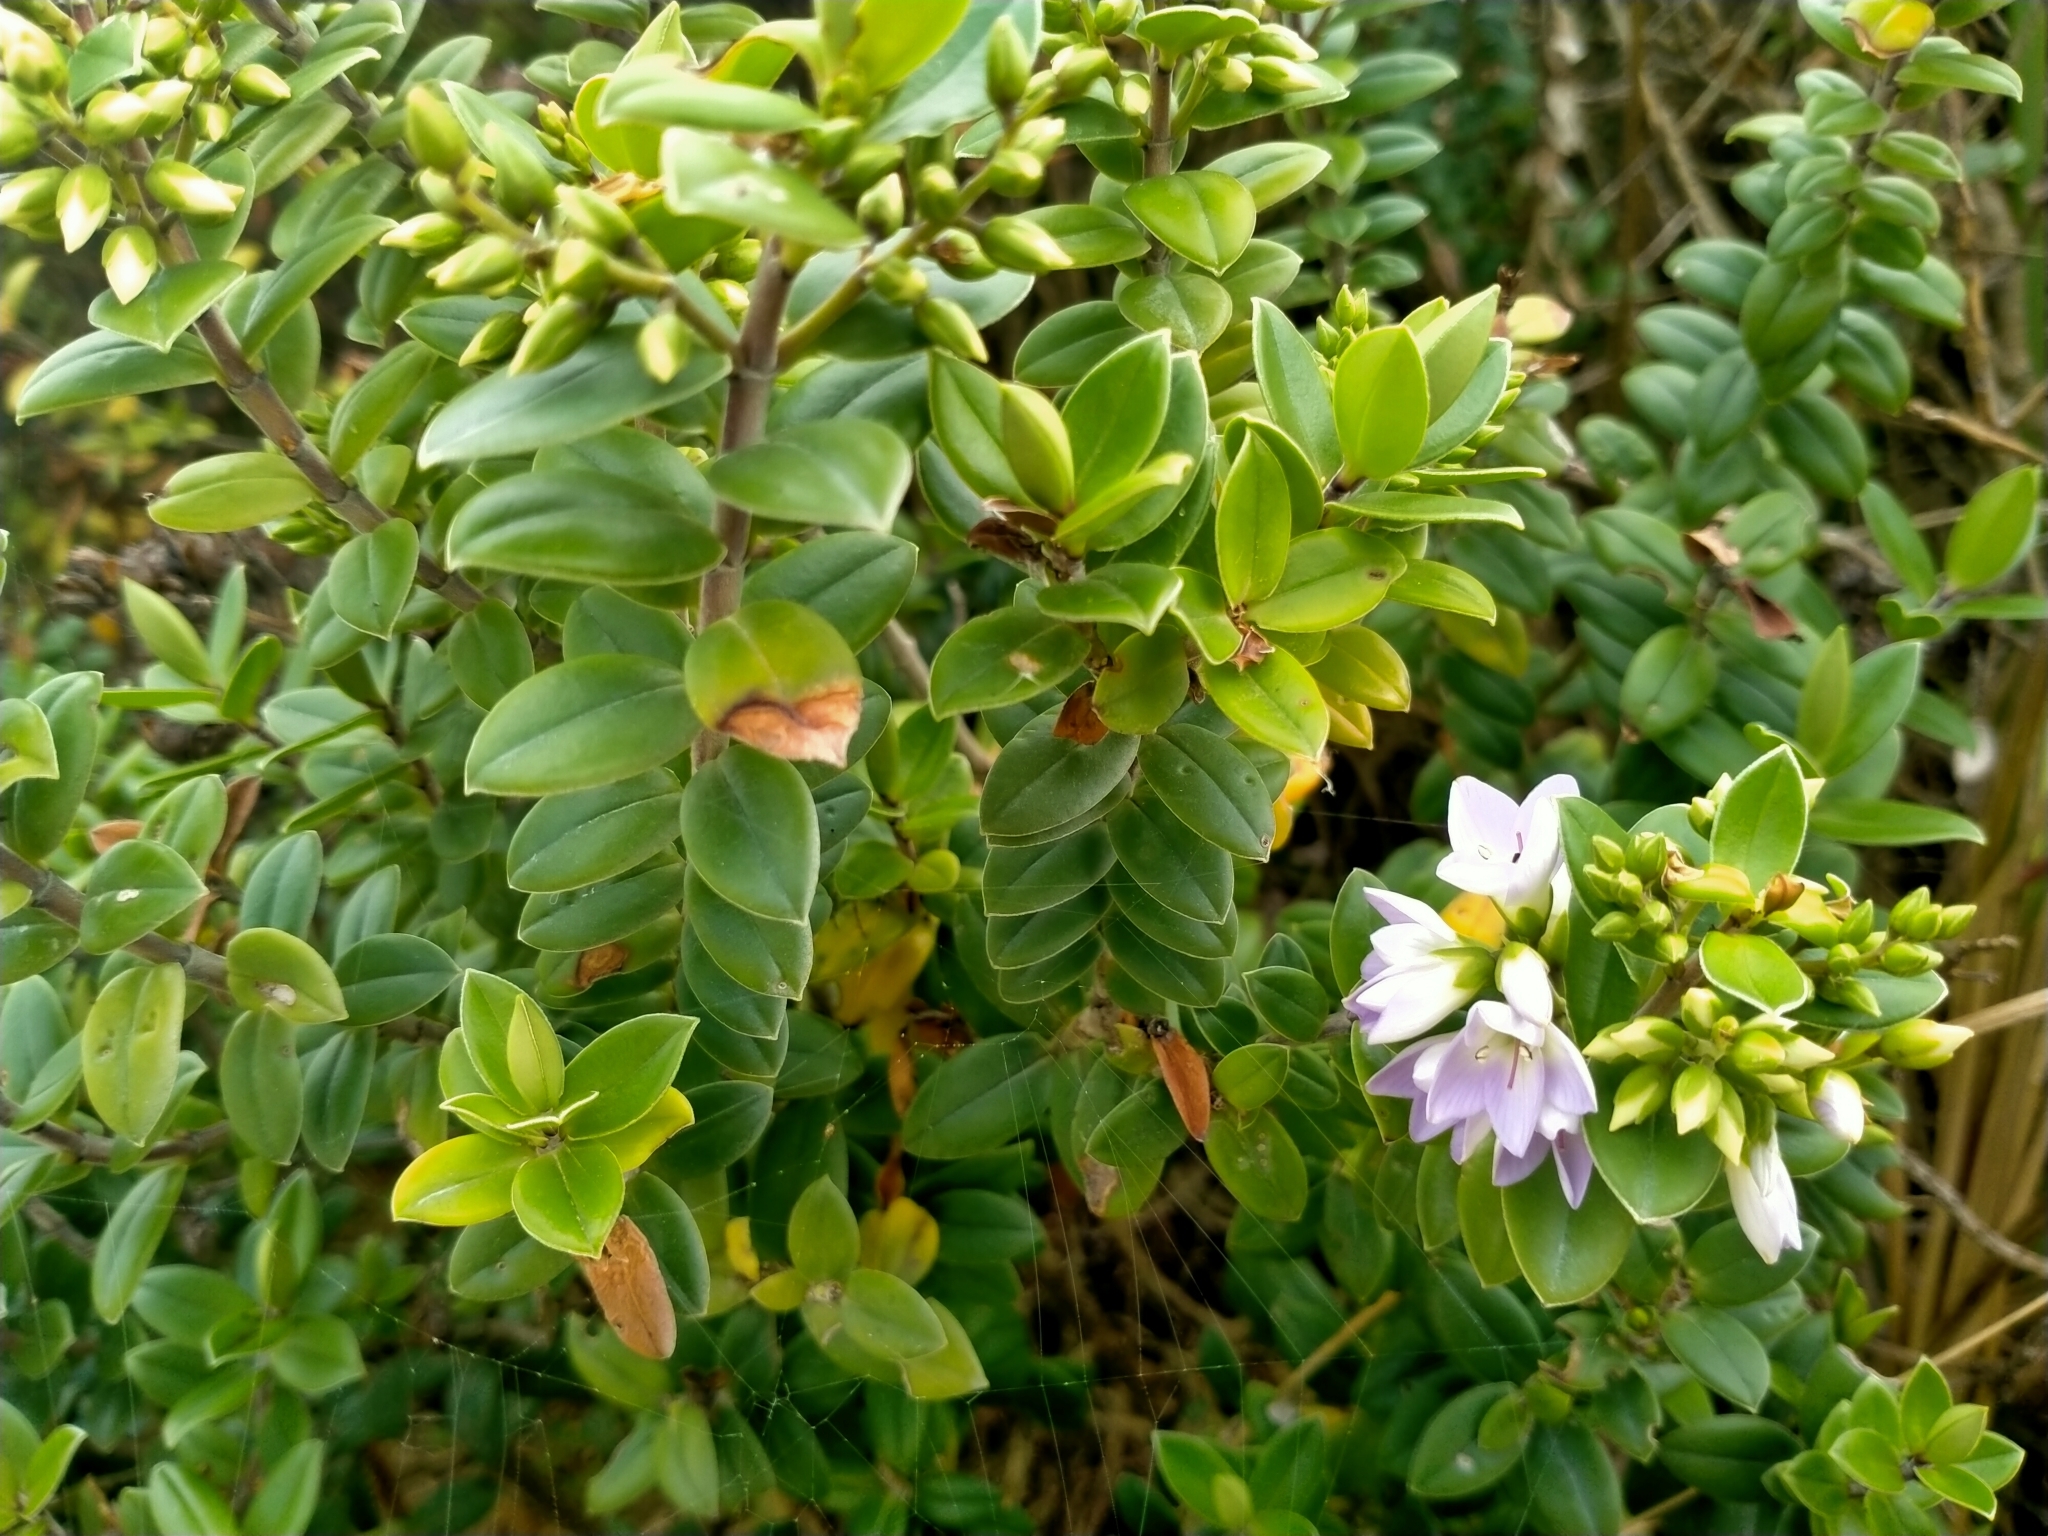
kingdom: Plantae
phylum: Tracheophyta
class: Magnoliopsida
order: Lamiales
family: Plantaginaceae
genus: Veronica
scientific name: Veronica elliptica
